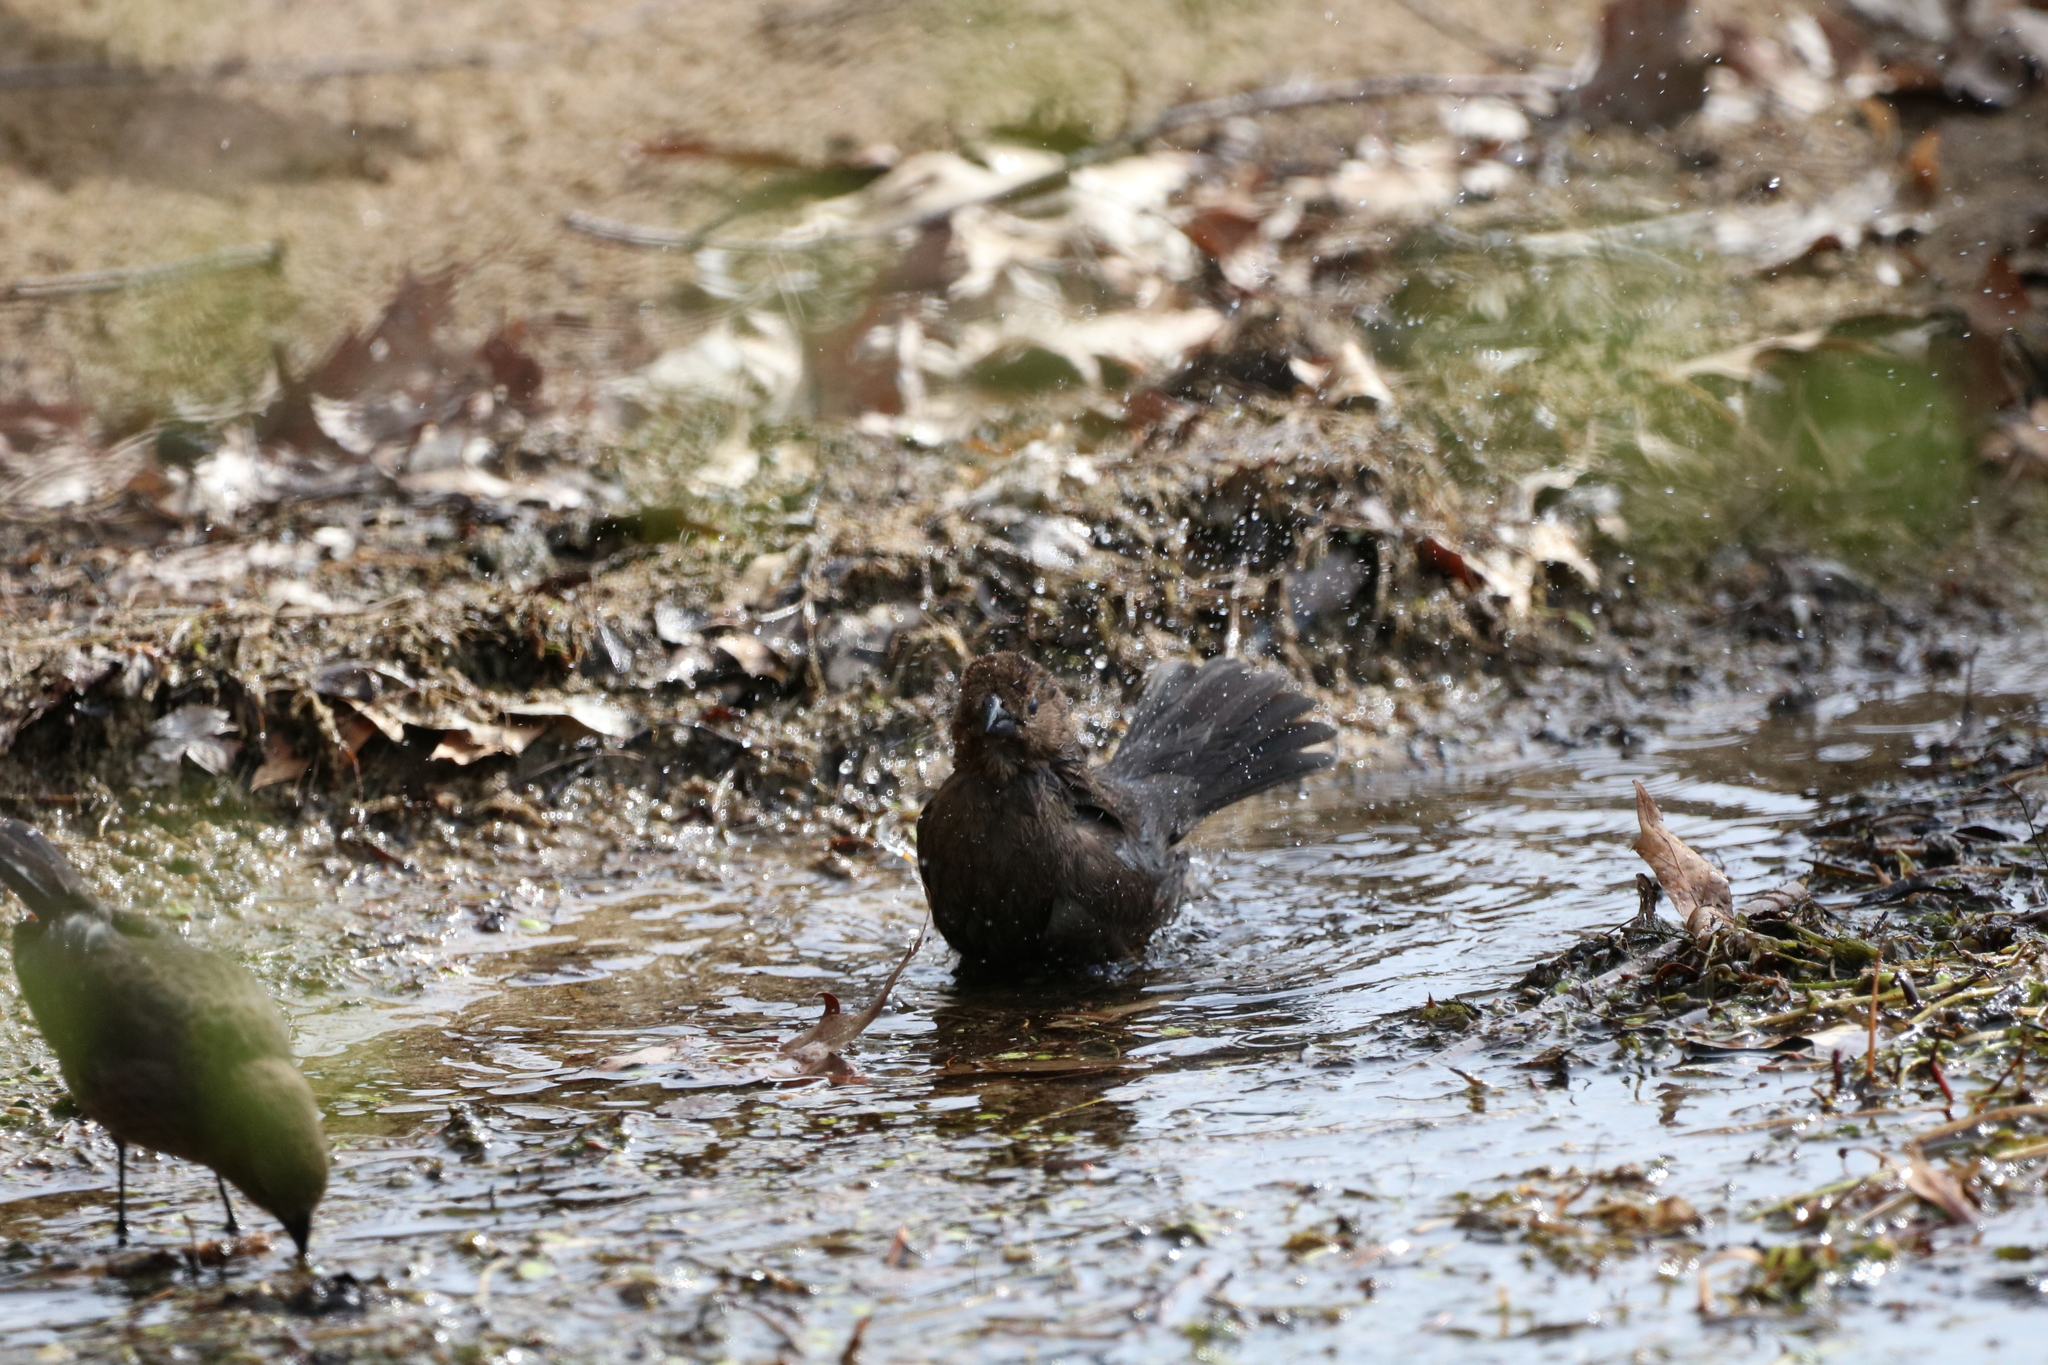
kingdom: Animalia
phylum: Chordata
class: Aves
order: Passeriformes
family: Icteridae
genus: Molothrus
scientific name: Molothrus ater
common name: Brown-headed cowbird
